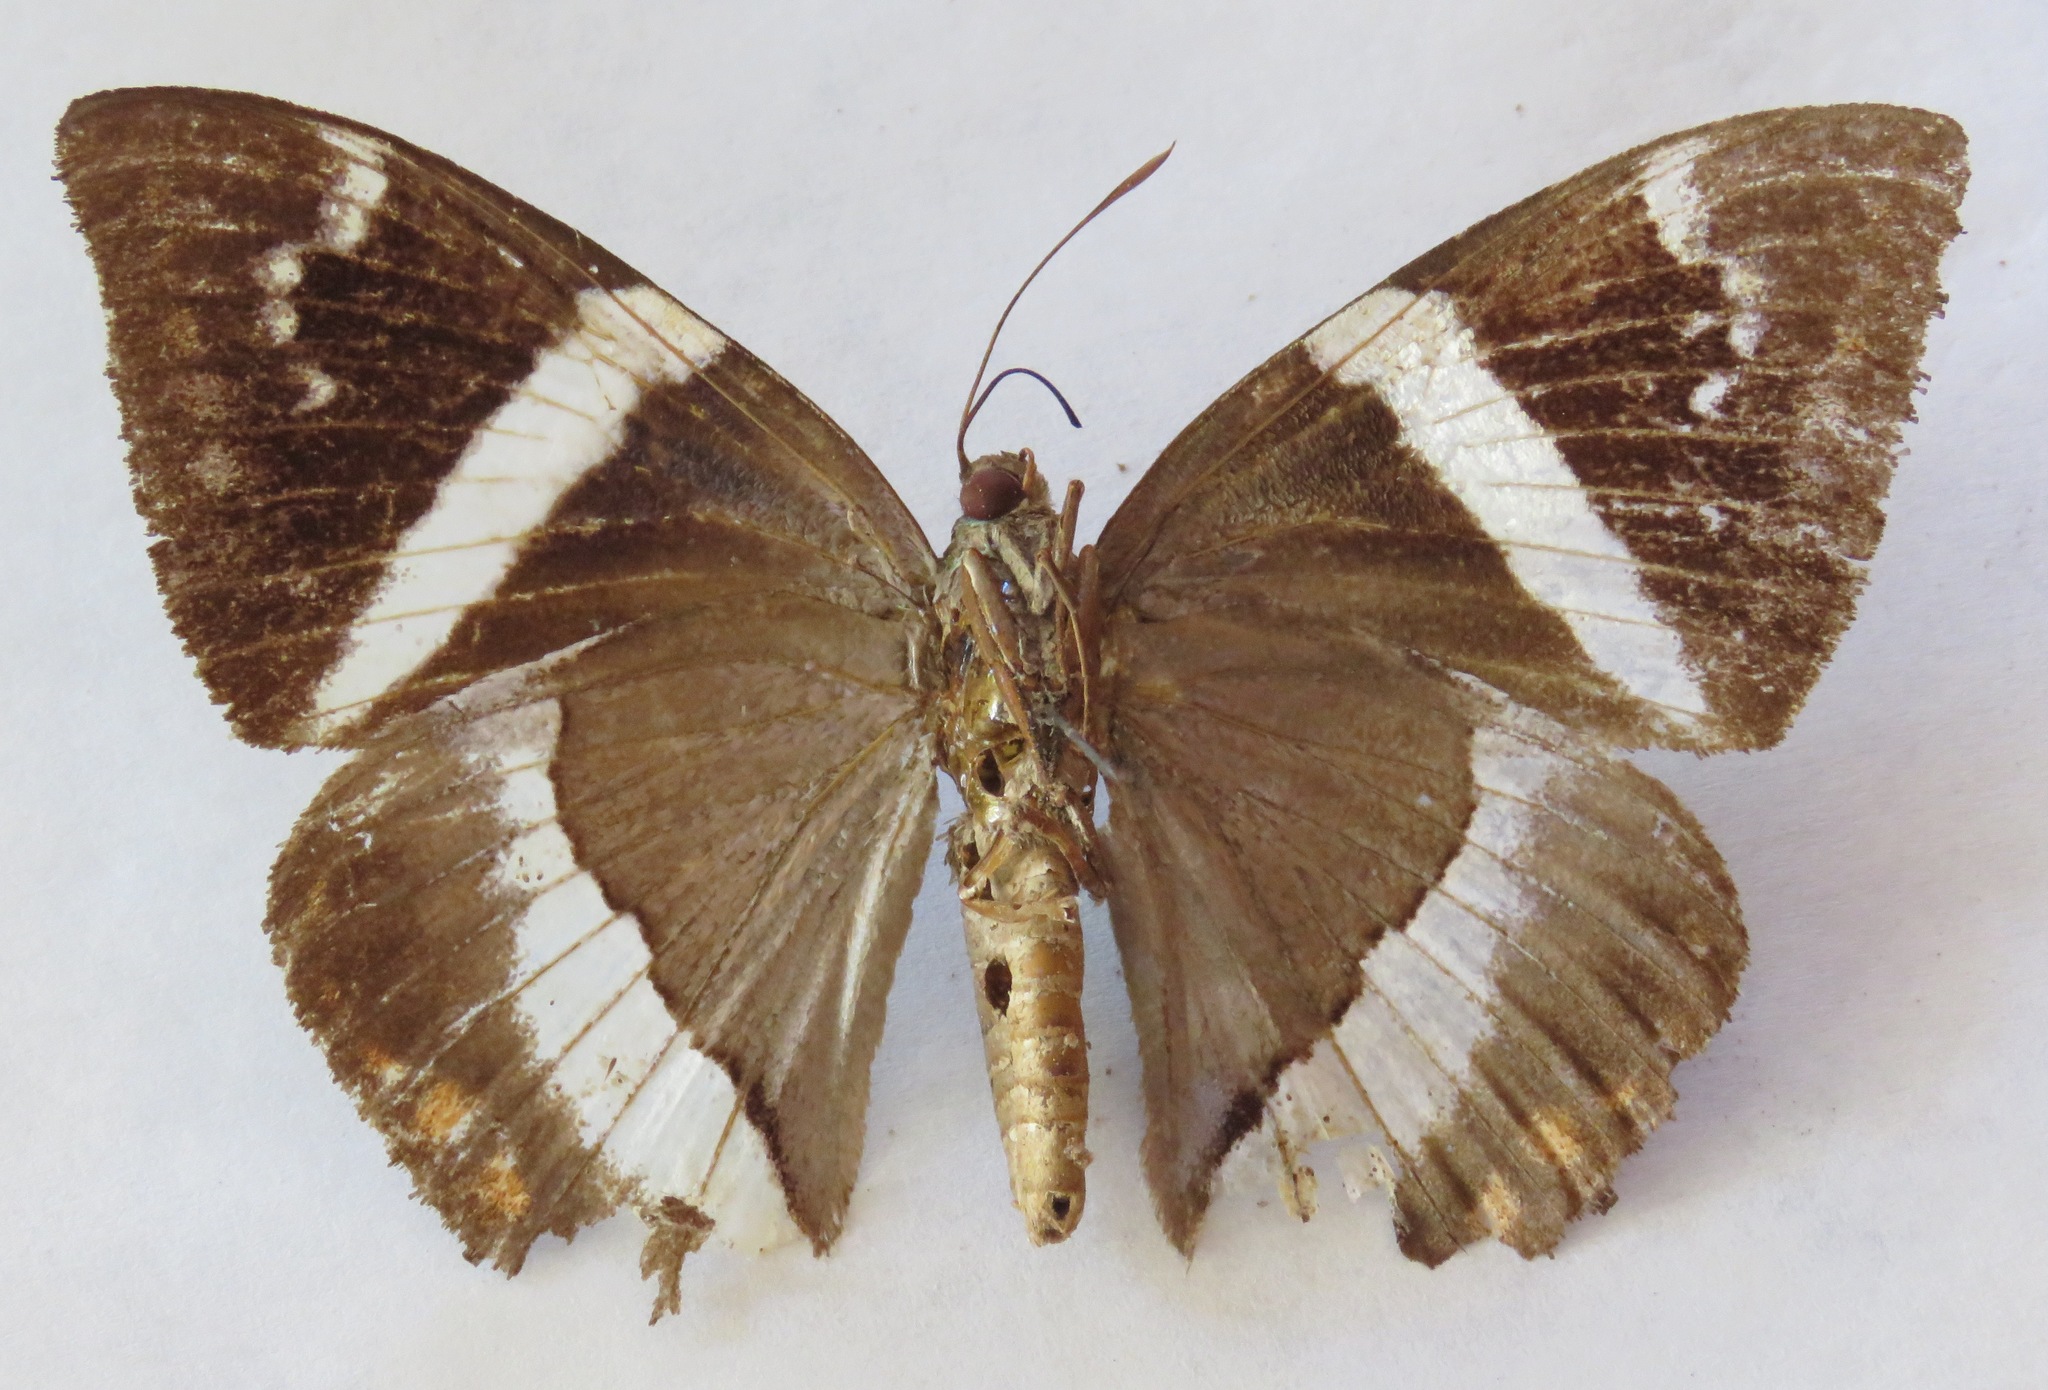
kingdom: Animalia
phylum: Arthropoda
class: Insecta
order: Lepidoptera
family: Castniidae
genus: Castnia
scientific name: Castnia licus
